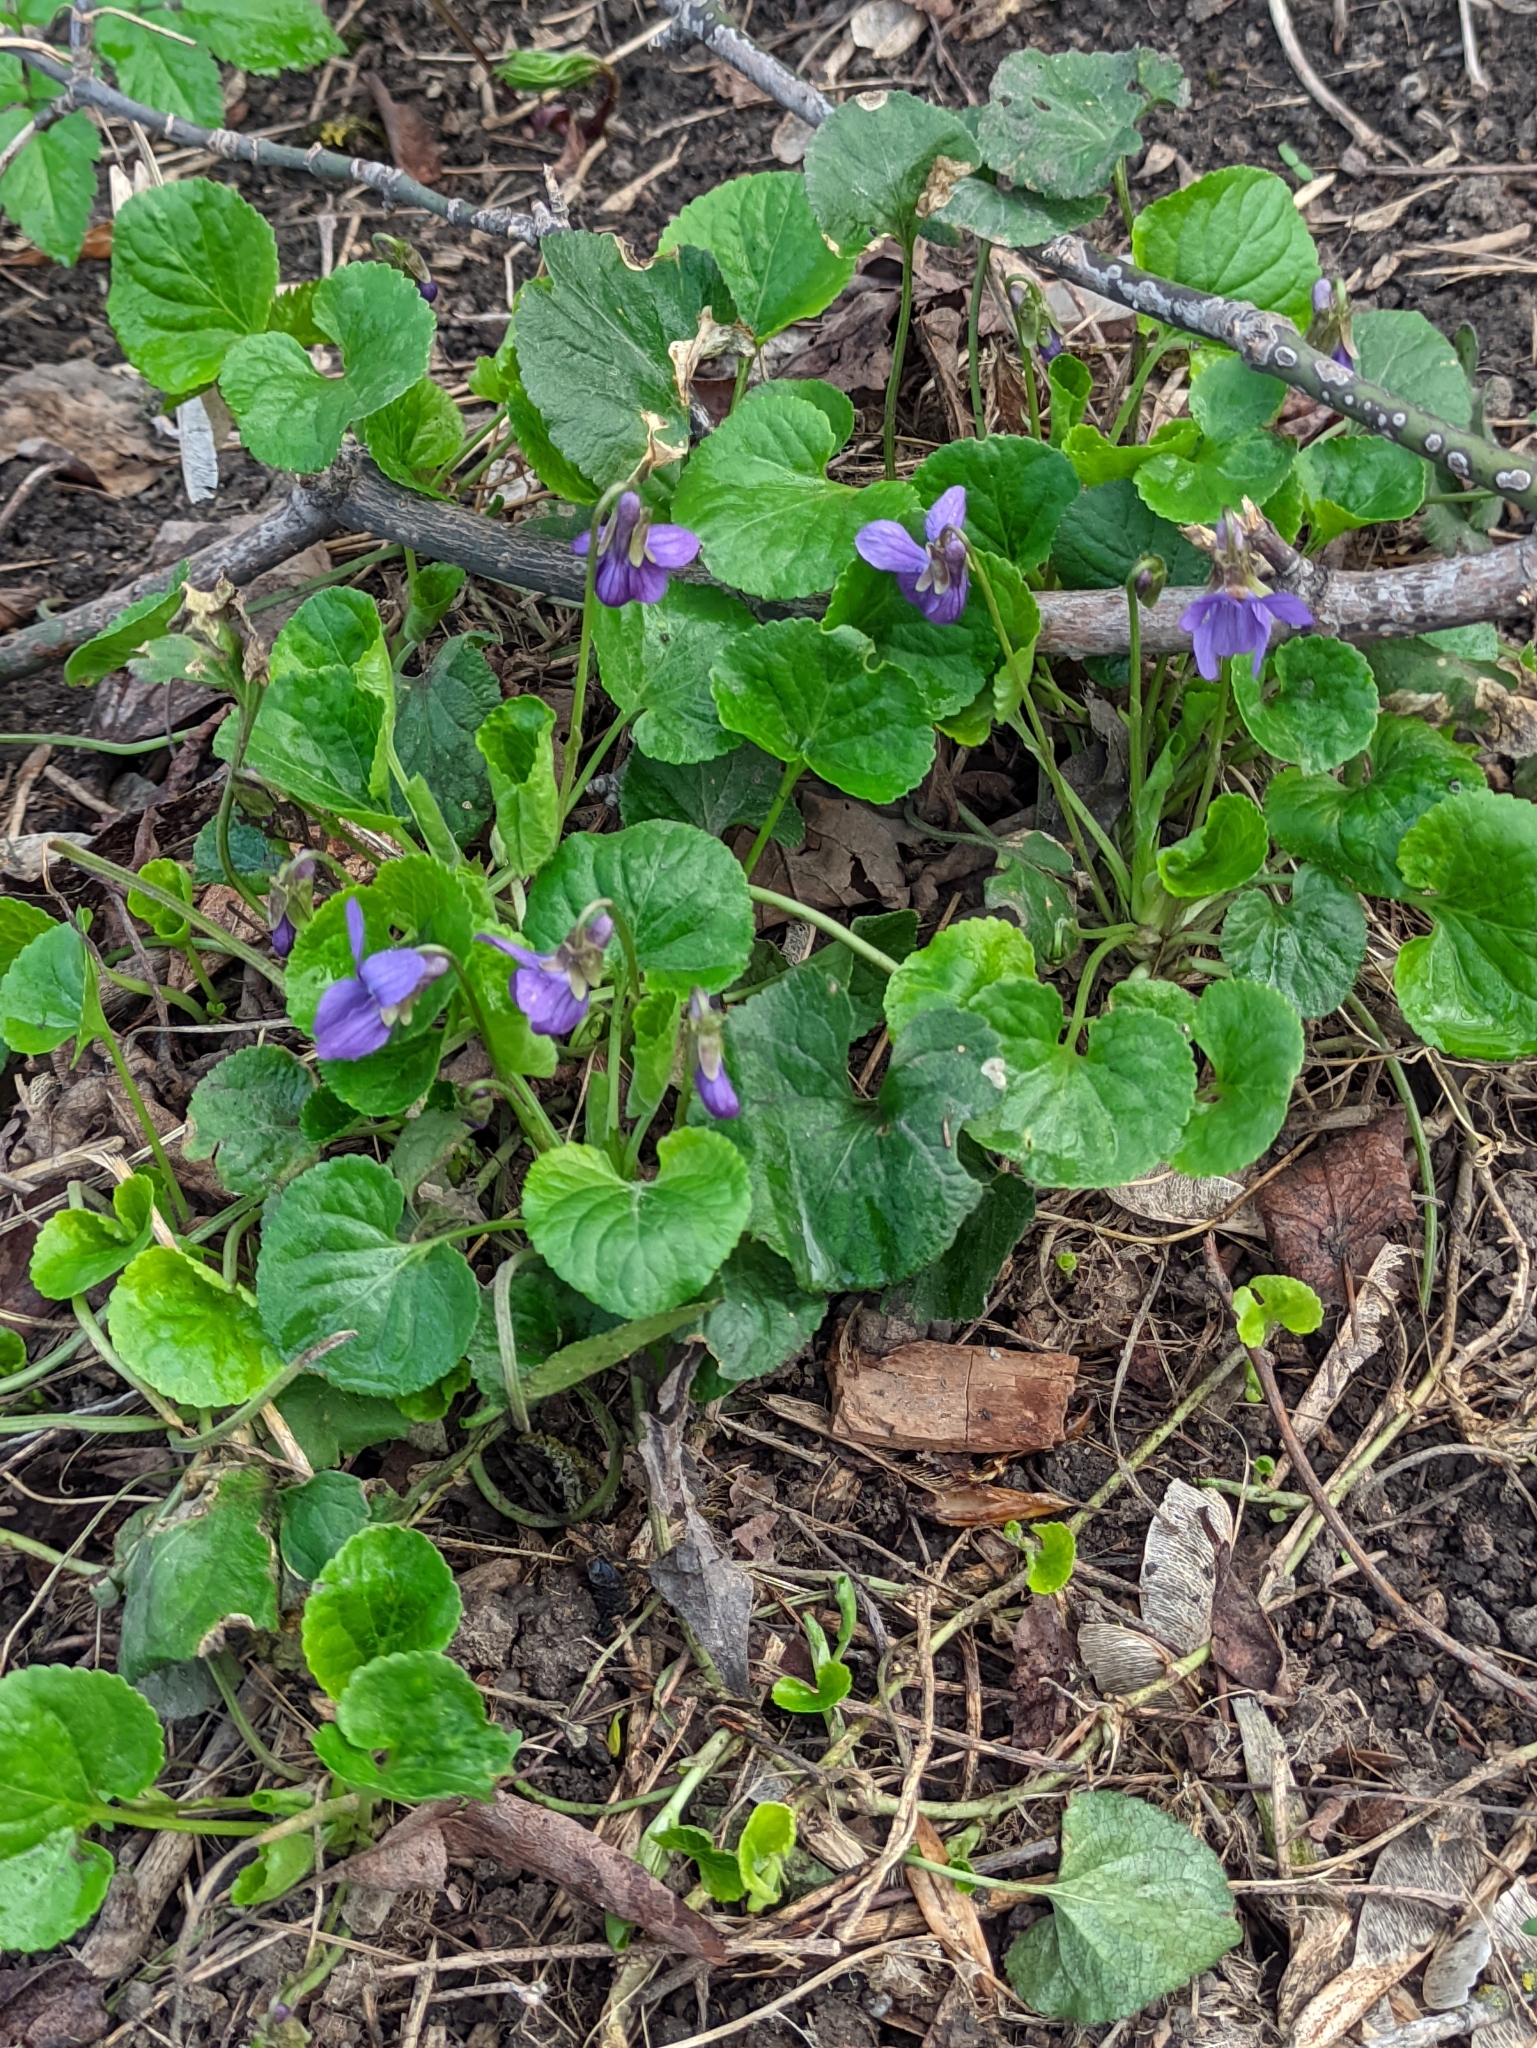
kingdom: Plantae
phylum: Tracheophyta
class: Magnoliopsida
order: Malpighiales
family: Violaceae
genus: Viola
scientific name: Viola odorata
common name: Sweet violet
